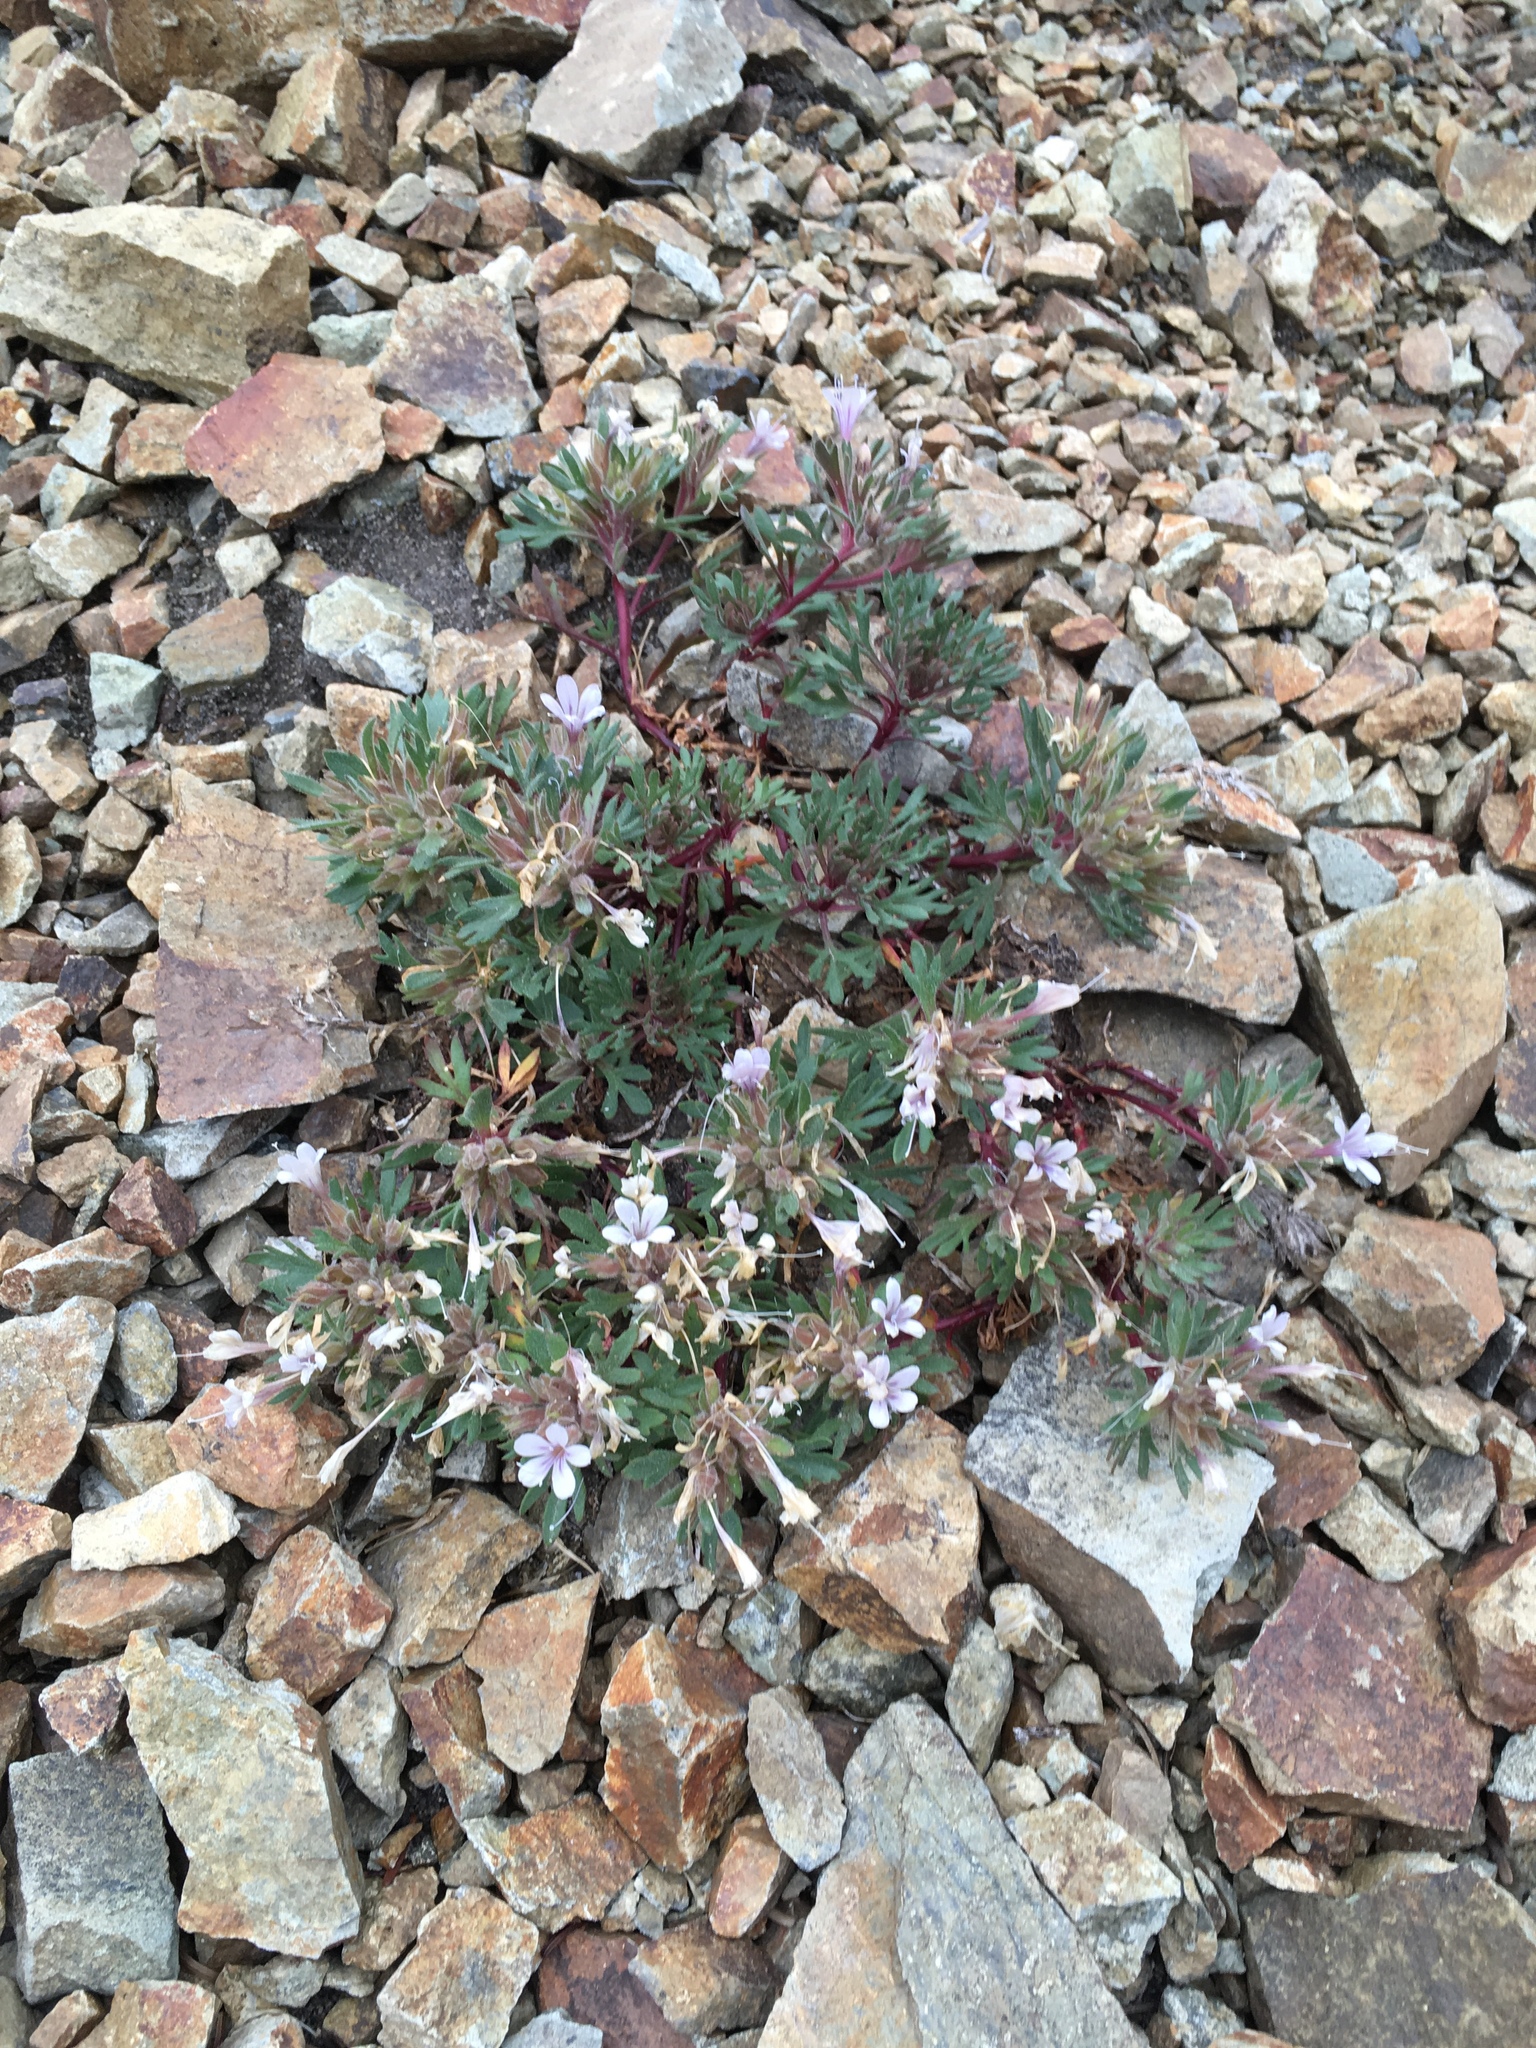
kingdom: Plantae
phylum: Tracheophyta
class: Magnoliopsida
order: Ericales
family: Polemoniaceae
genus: Collomia
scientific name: Collomia larsenii
